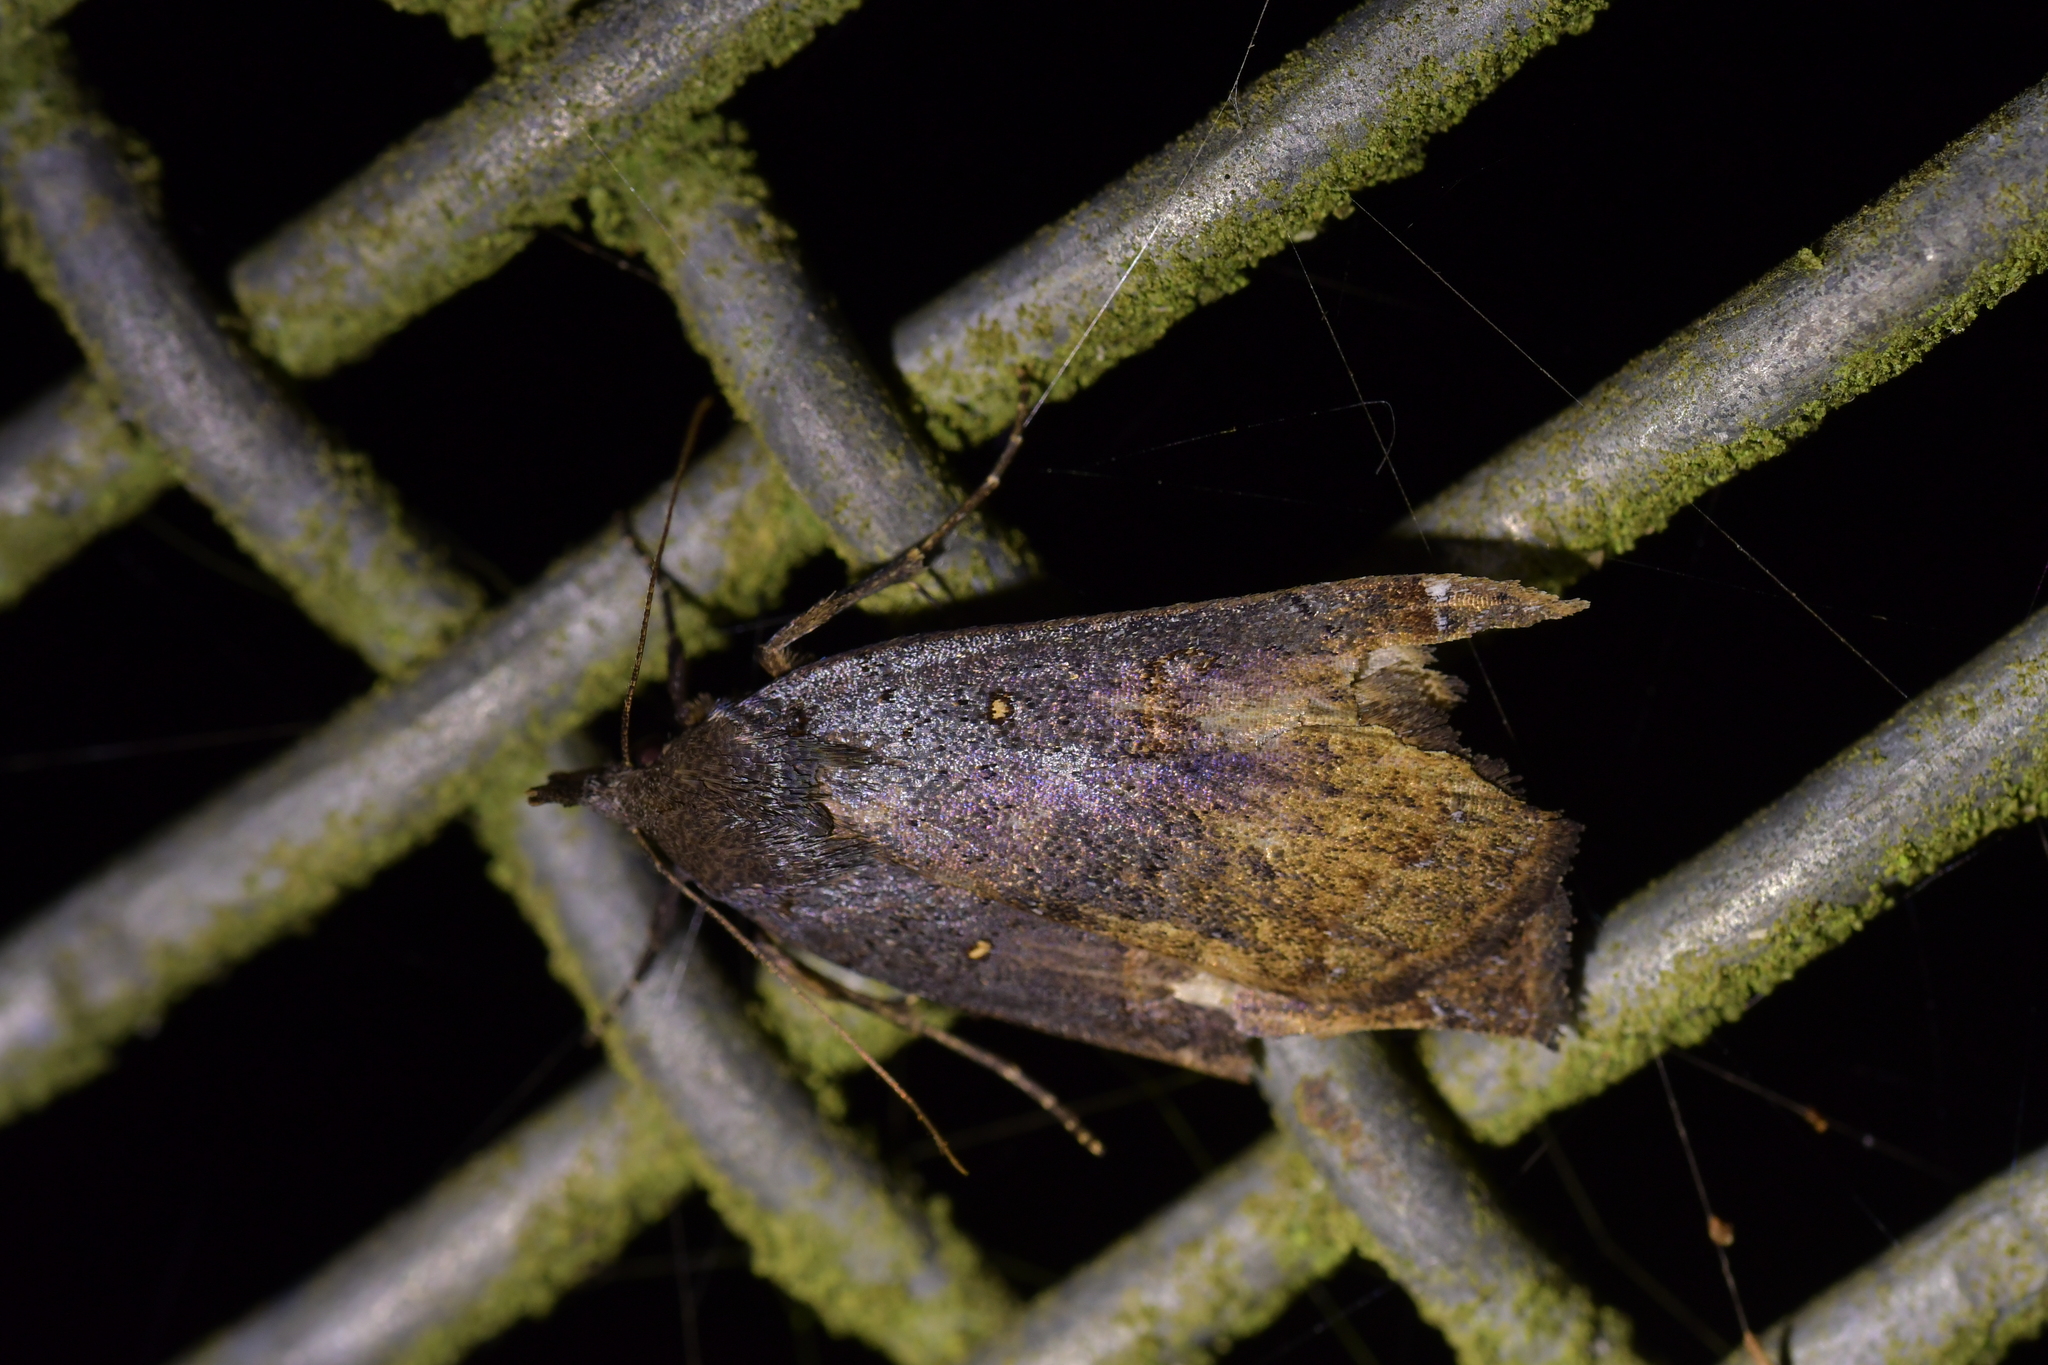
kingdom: Animalia
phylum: Arthropoda
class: Insecta
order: Lepidoptera
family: Erebidae
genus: Rhapsa
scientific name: Rhapsa scotosialis
